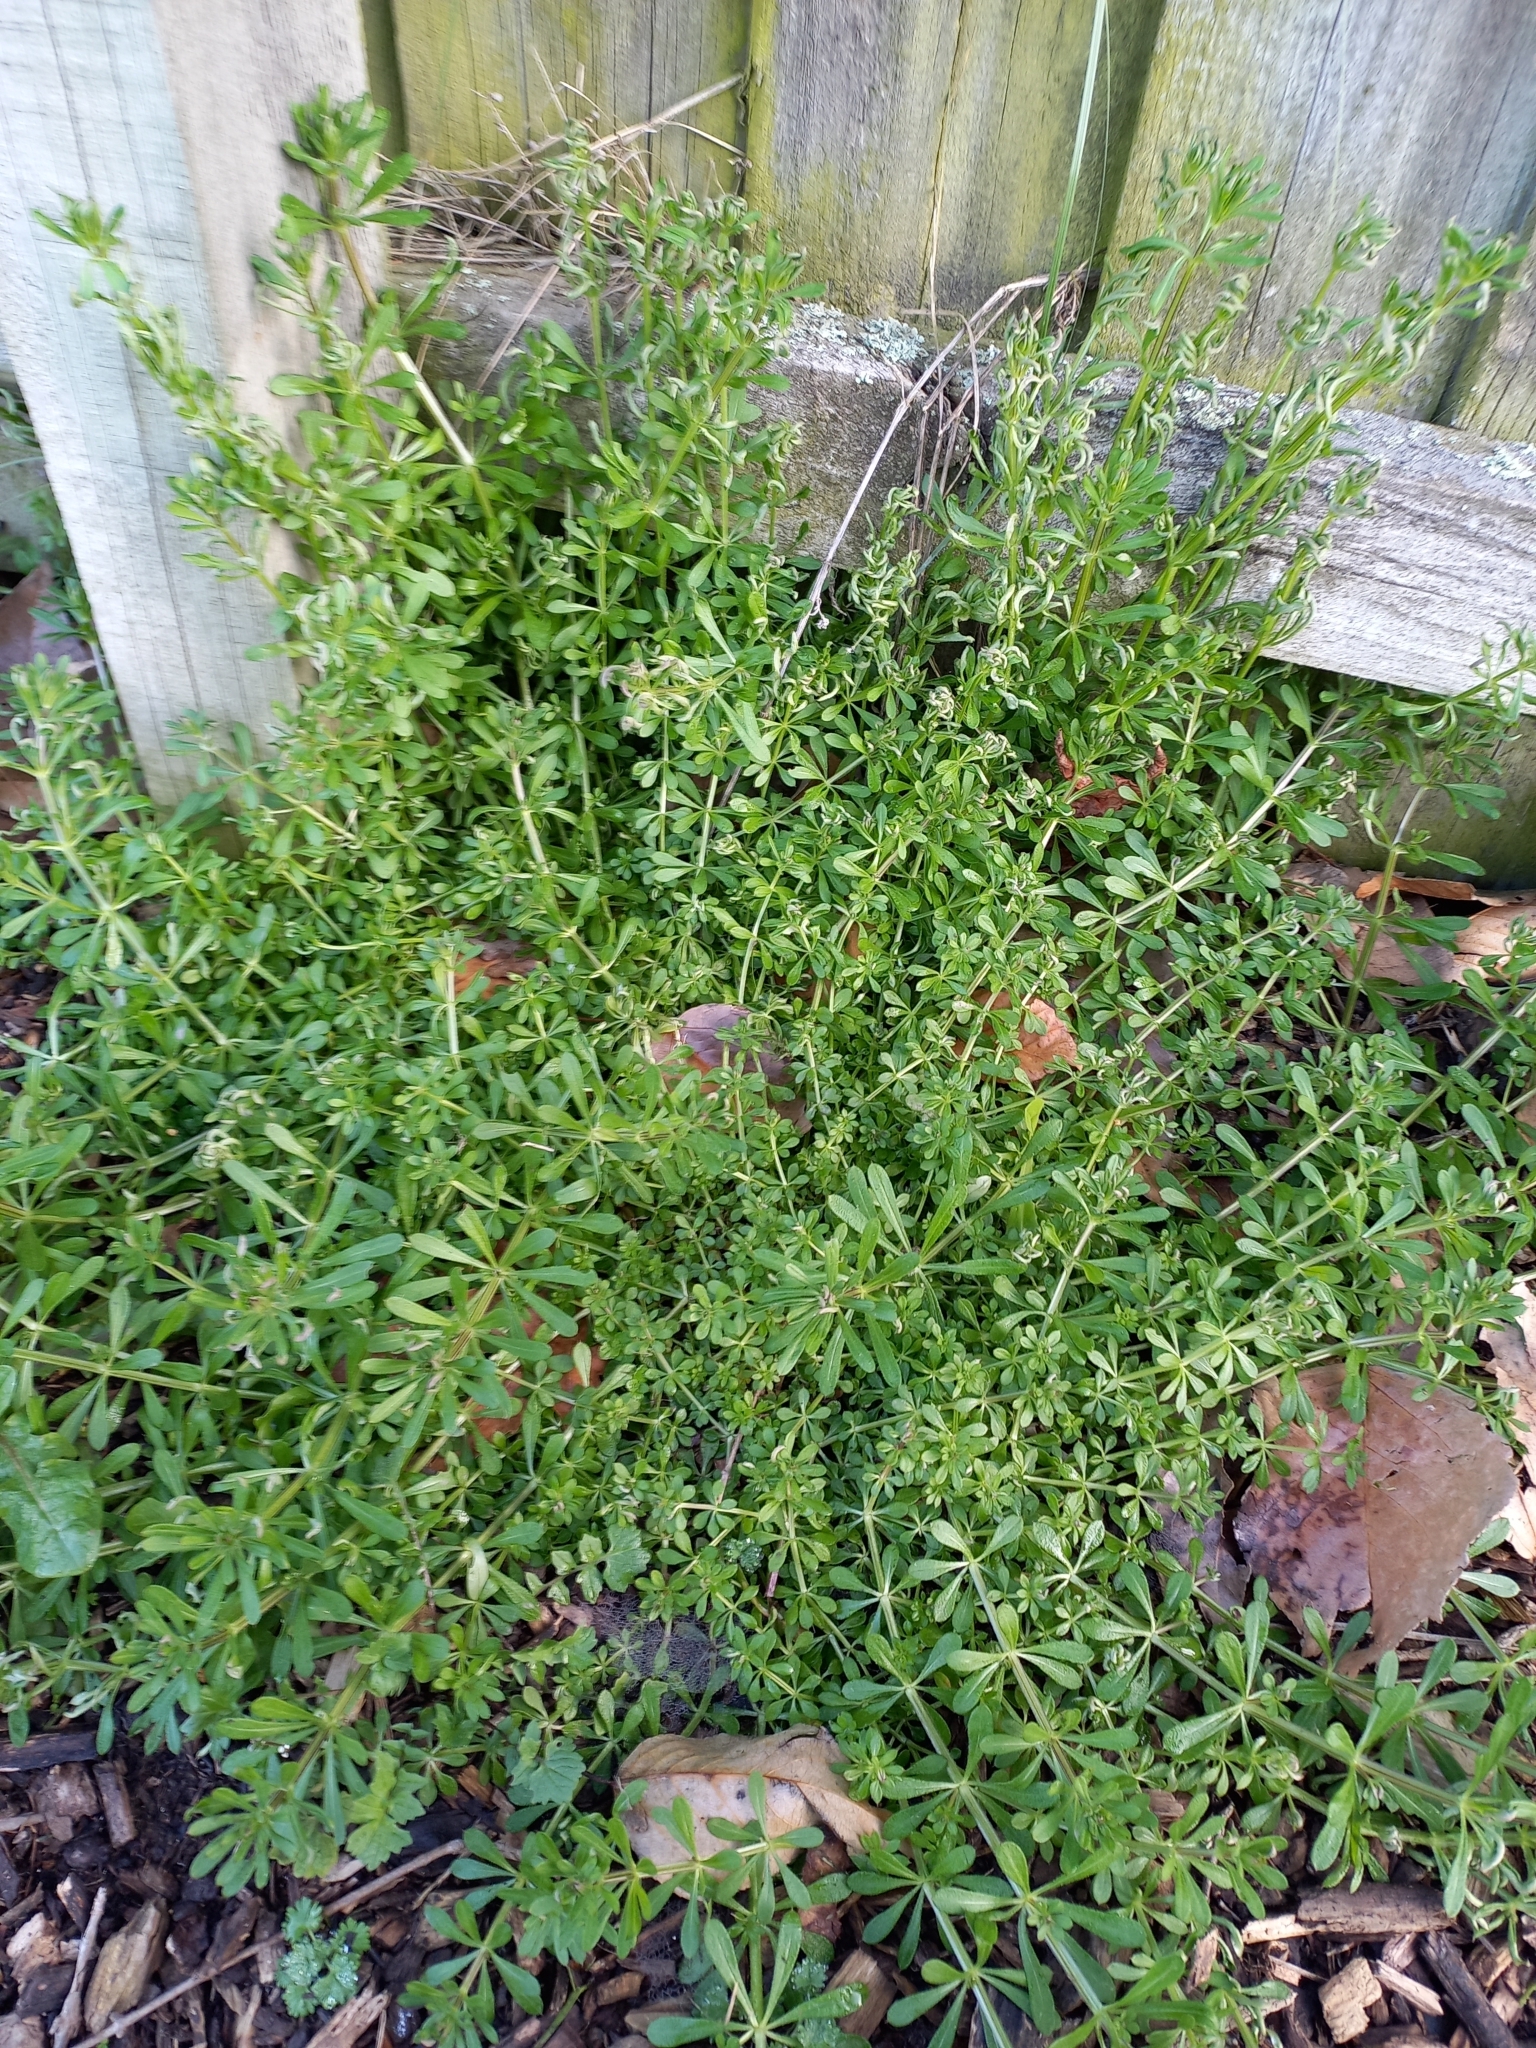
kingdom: Plantae
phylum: Tracheophyta
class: Magnoliopsida
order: Gentianales
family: Rubiaceae
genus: Galium
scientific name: Galium aparine
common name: Cleavers
